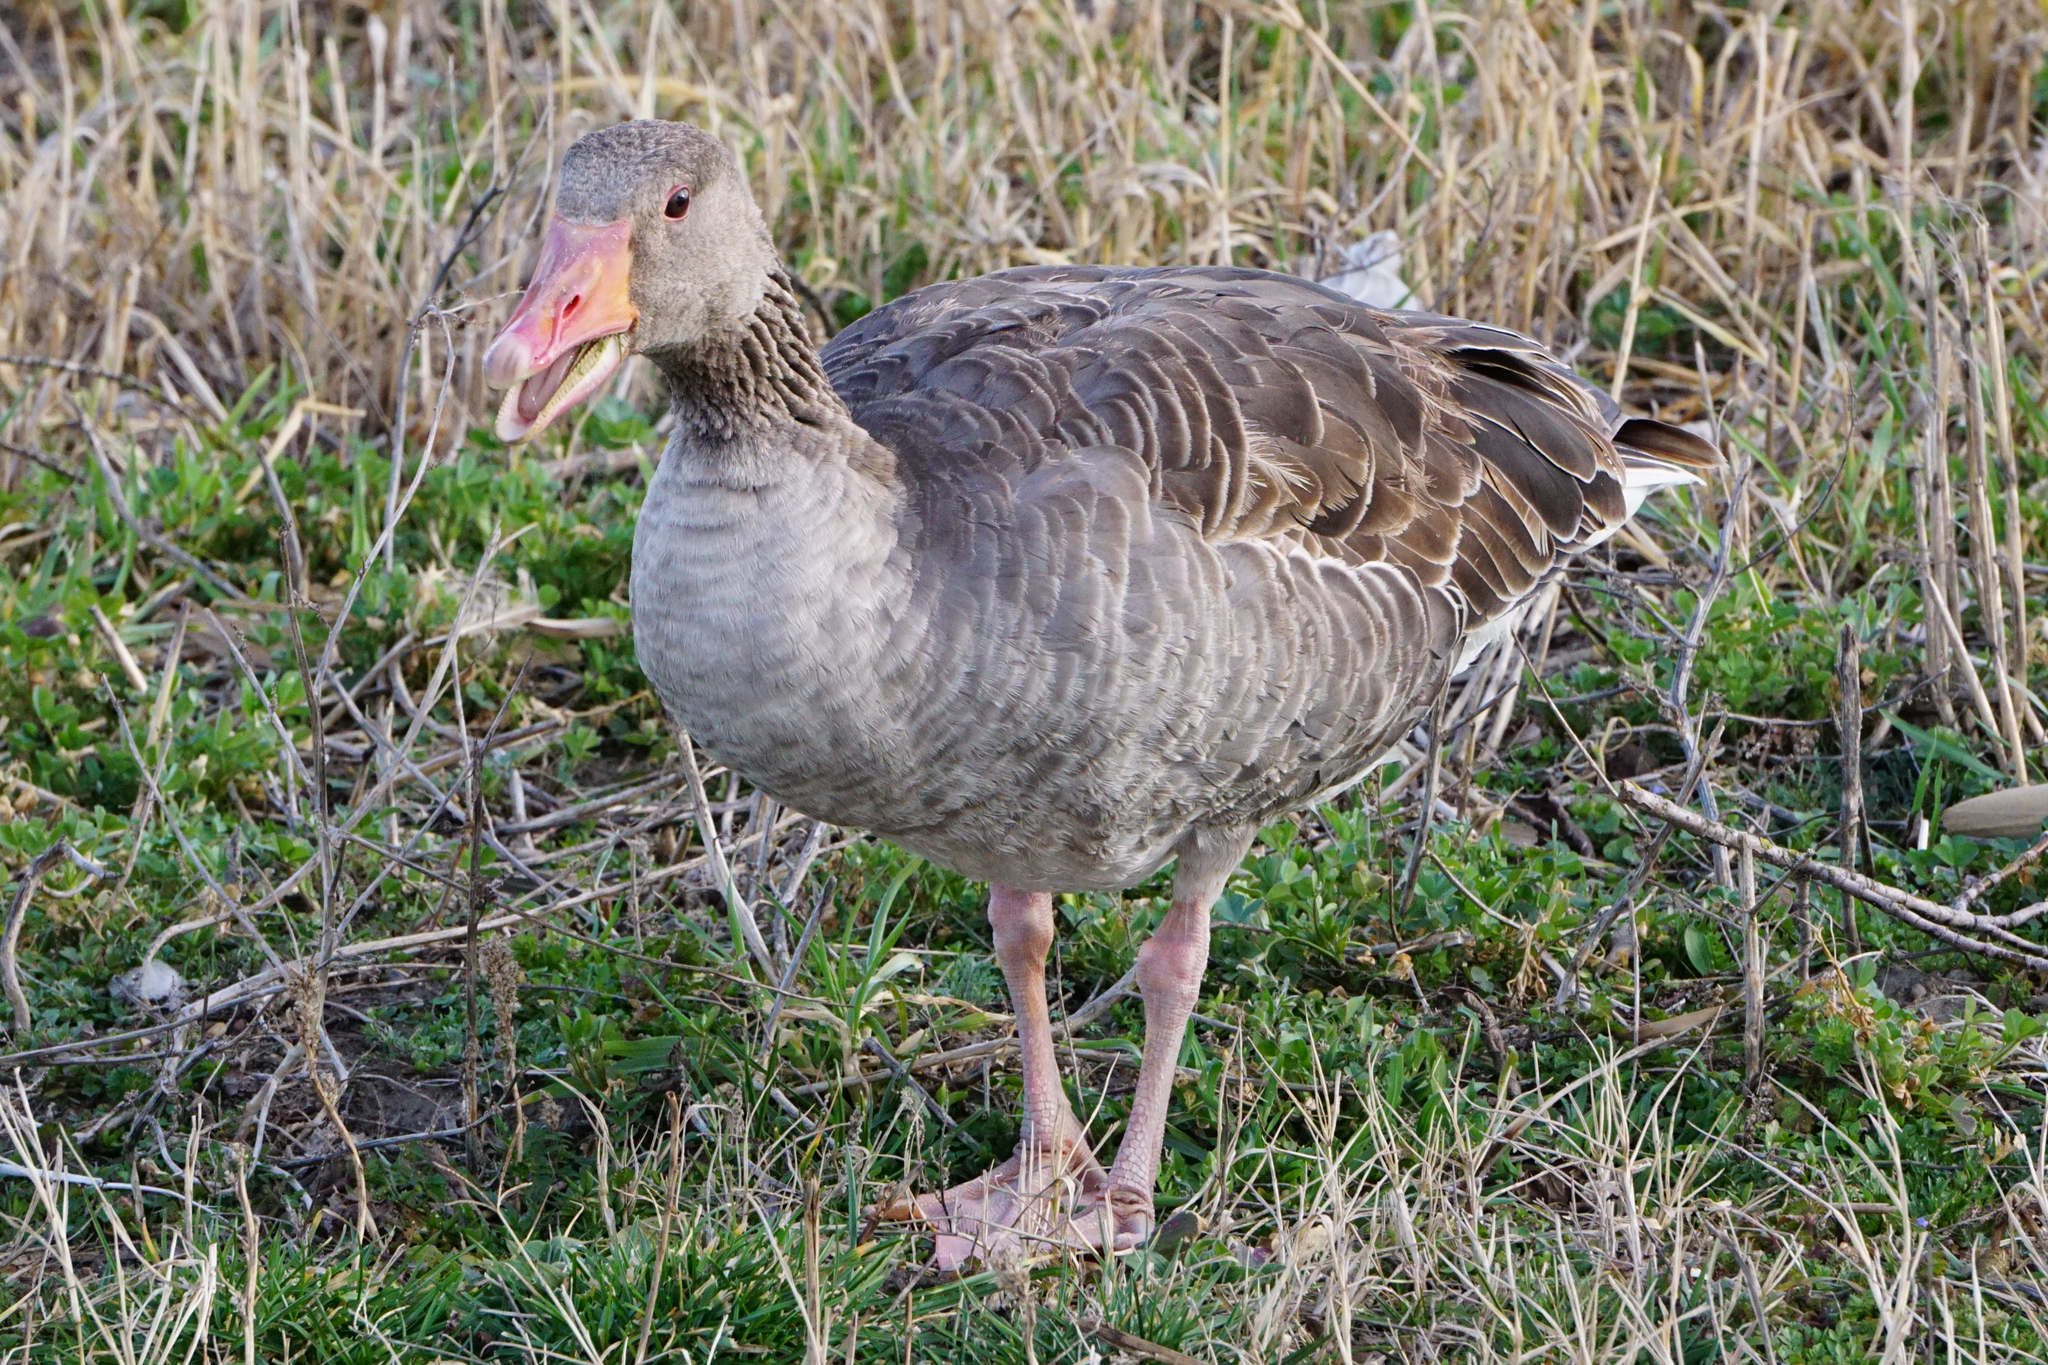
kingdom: Animalia
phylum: Chordata
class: Aves
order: Anseriformes
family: Anatidae
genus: Anser
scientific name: Anser anser
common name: Greylag goose
